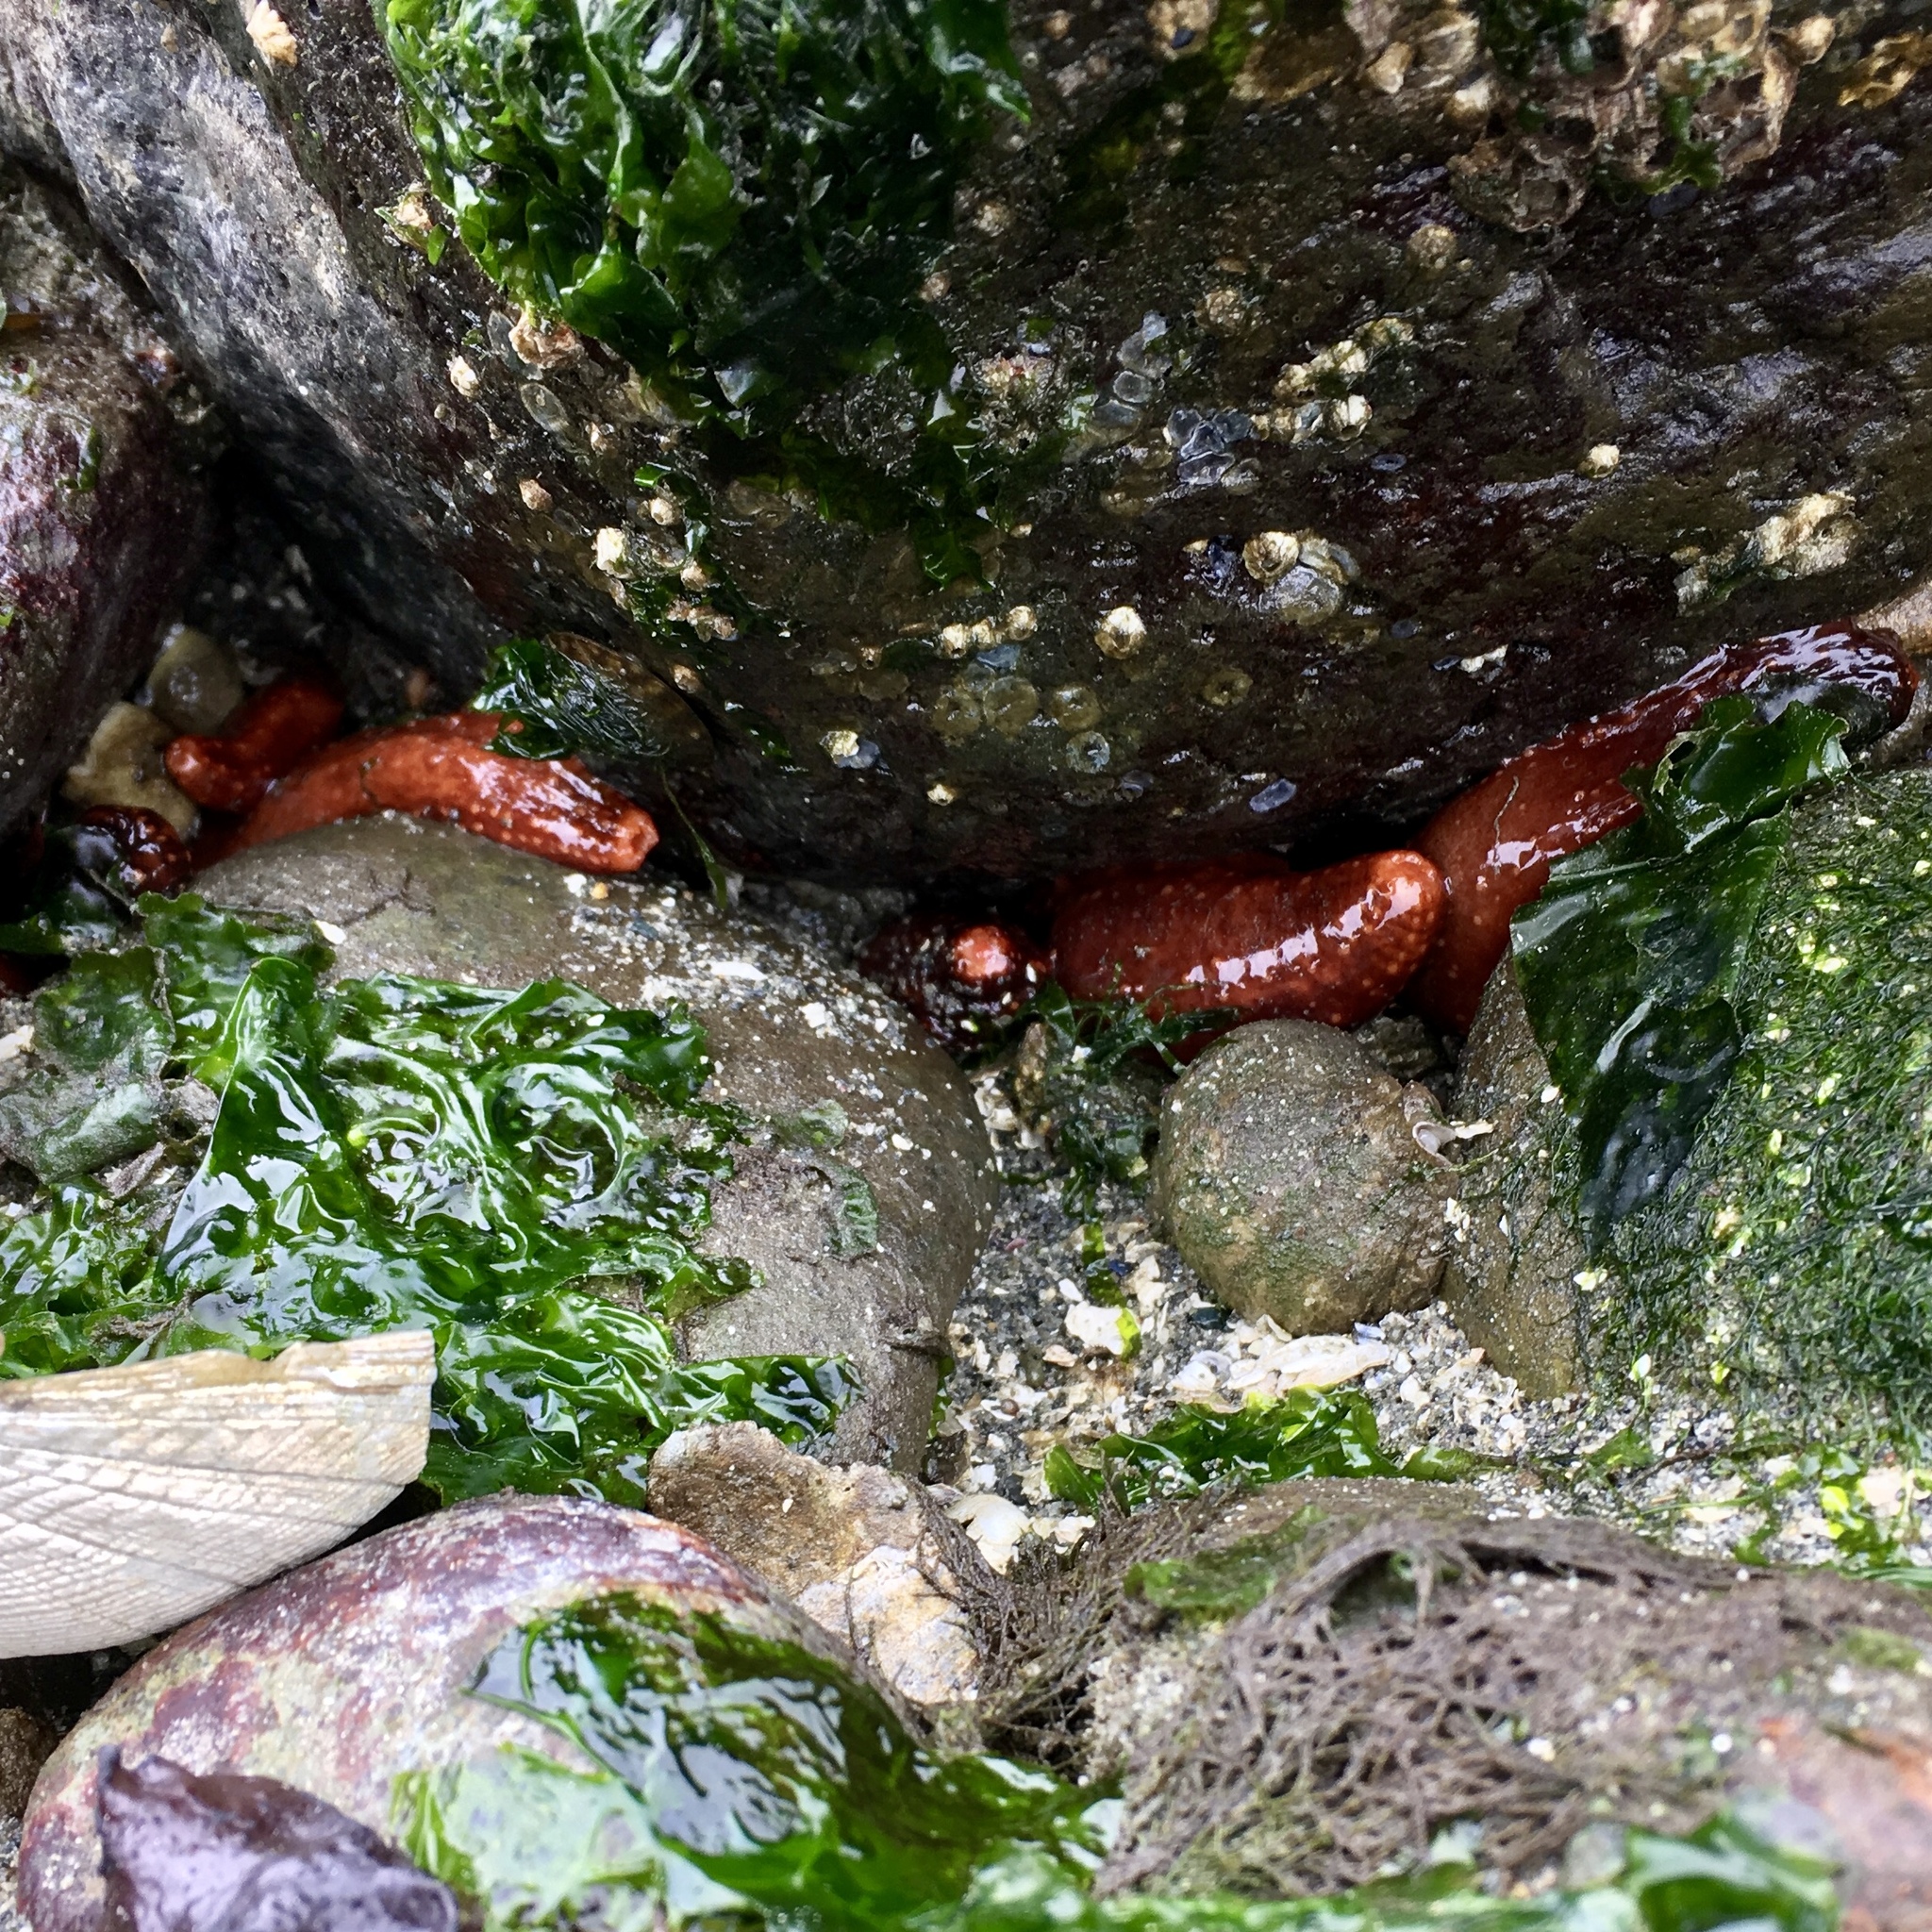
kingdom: Animalia
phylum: Echinodermata
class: Holothuroidea
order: Dendrochirotida
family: Cucumariidae
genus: Cucumaria
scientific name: Cucumaria miniata
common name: Orange sea cucumber
